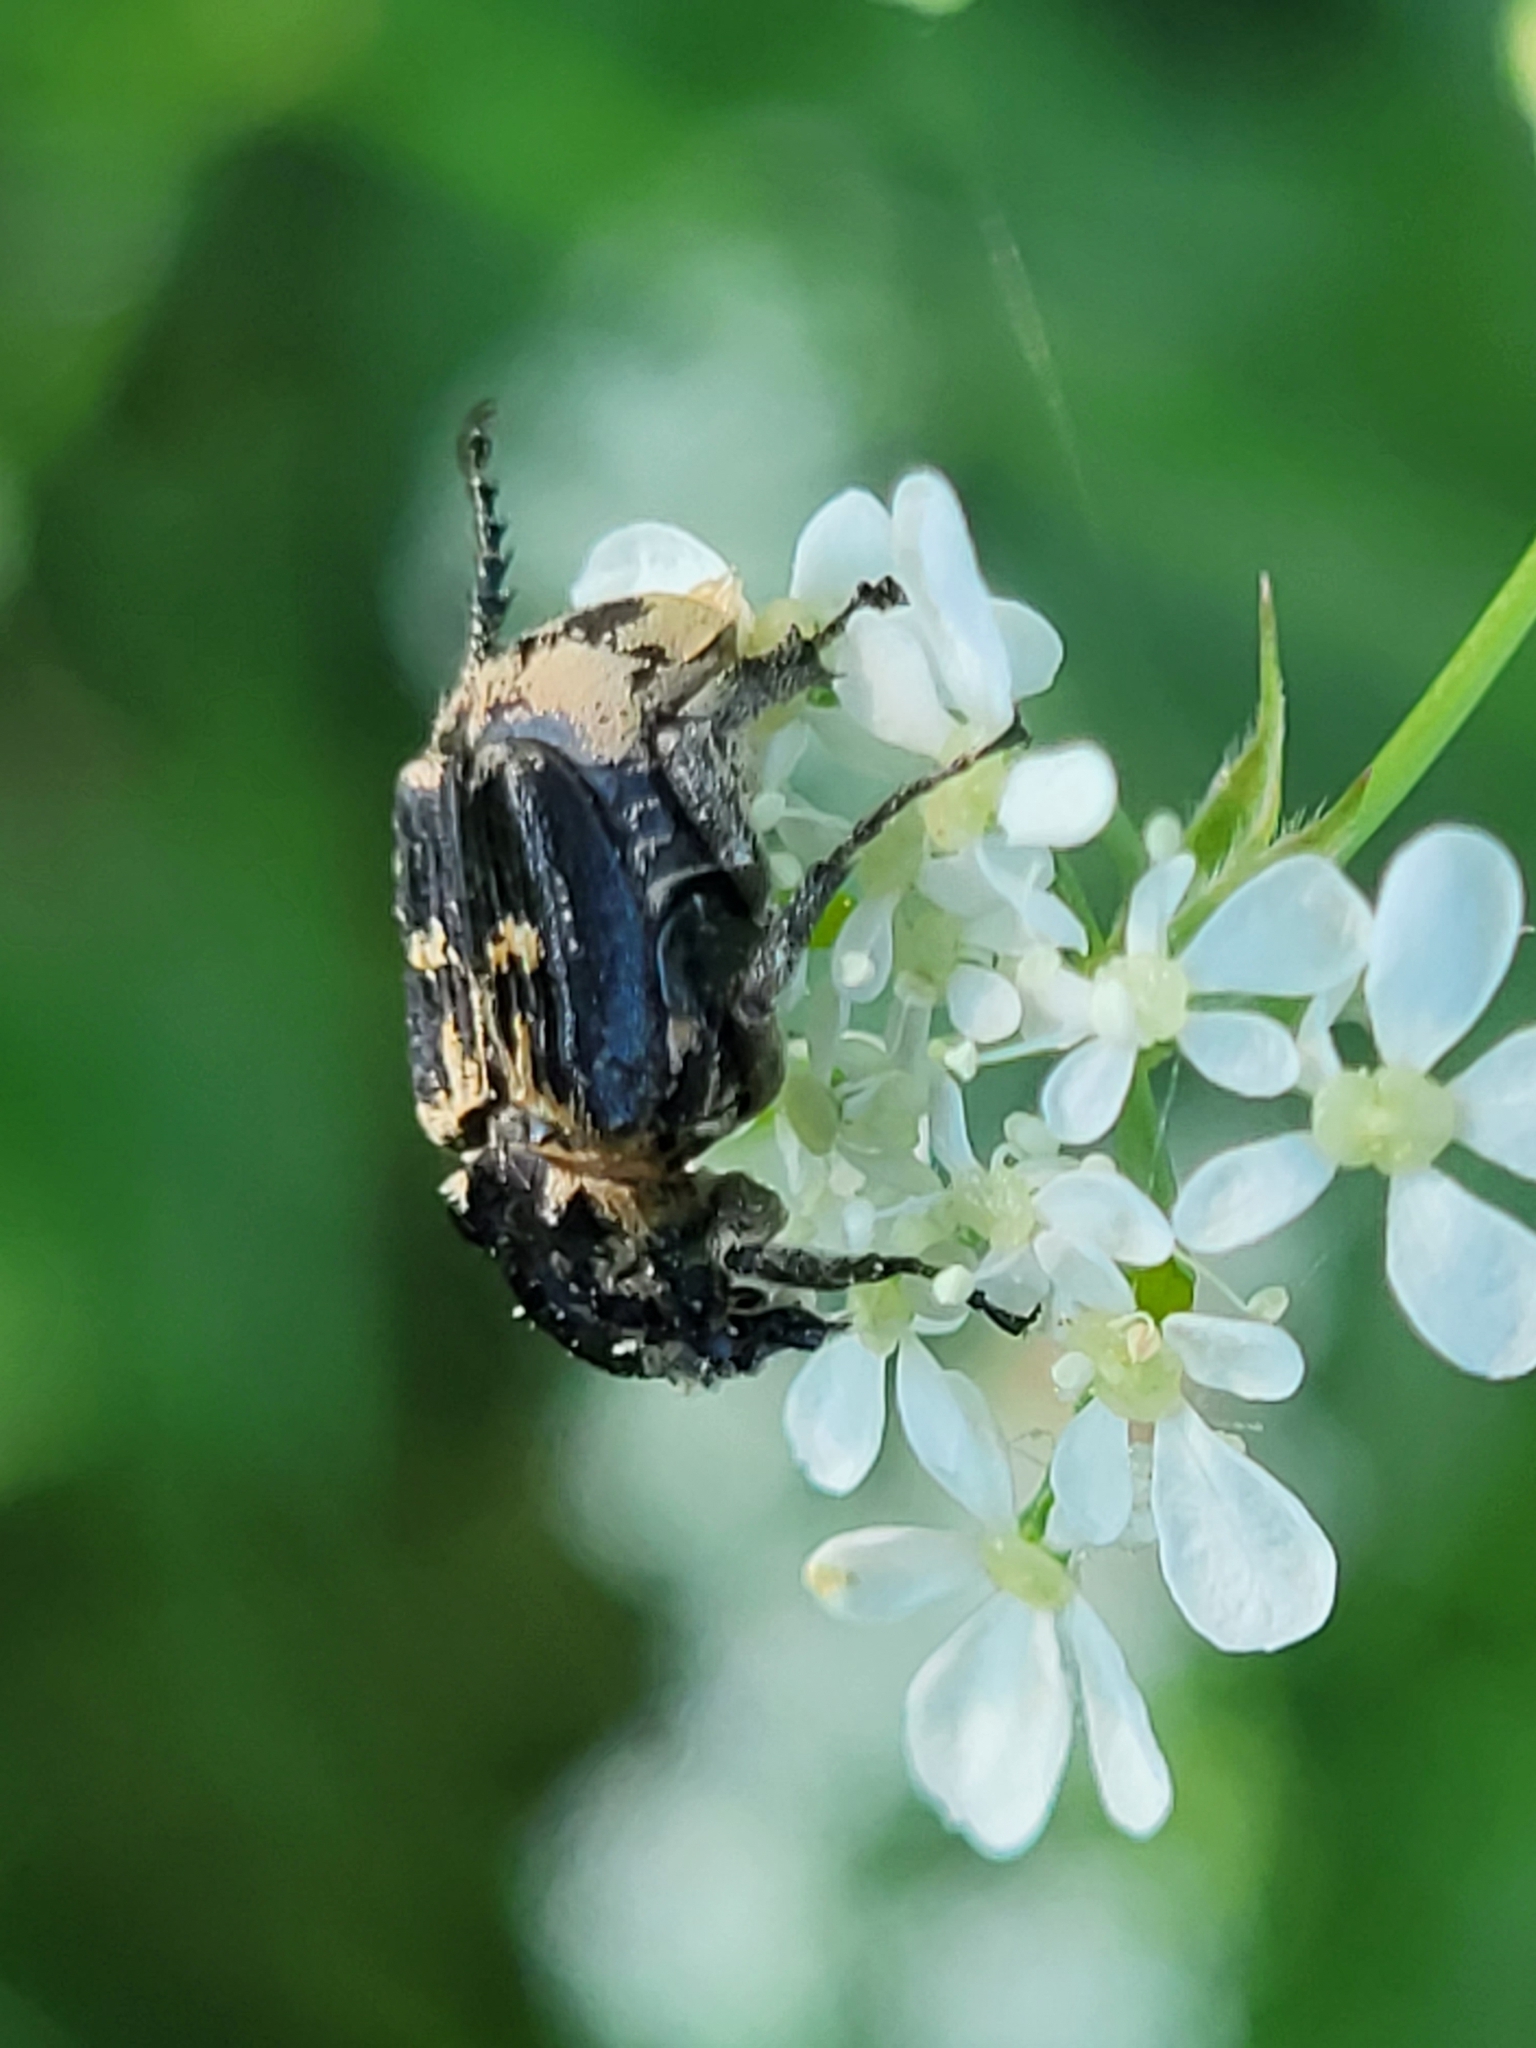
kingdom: Animalia
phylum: Arthropoda
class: Insecta
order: Coleoptera
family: Scarabaeidae
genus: Valgus
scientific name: Valgus hemipterus
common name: Bug flower chafer
